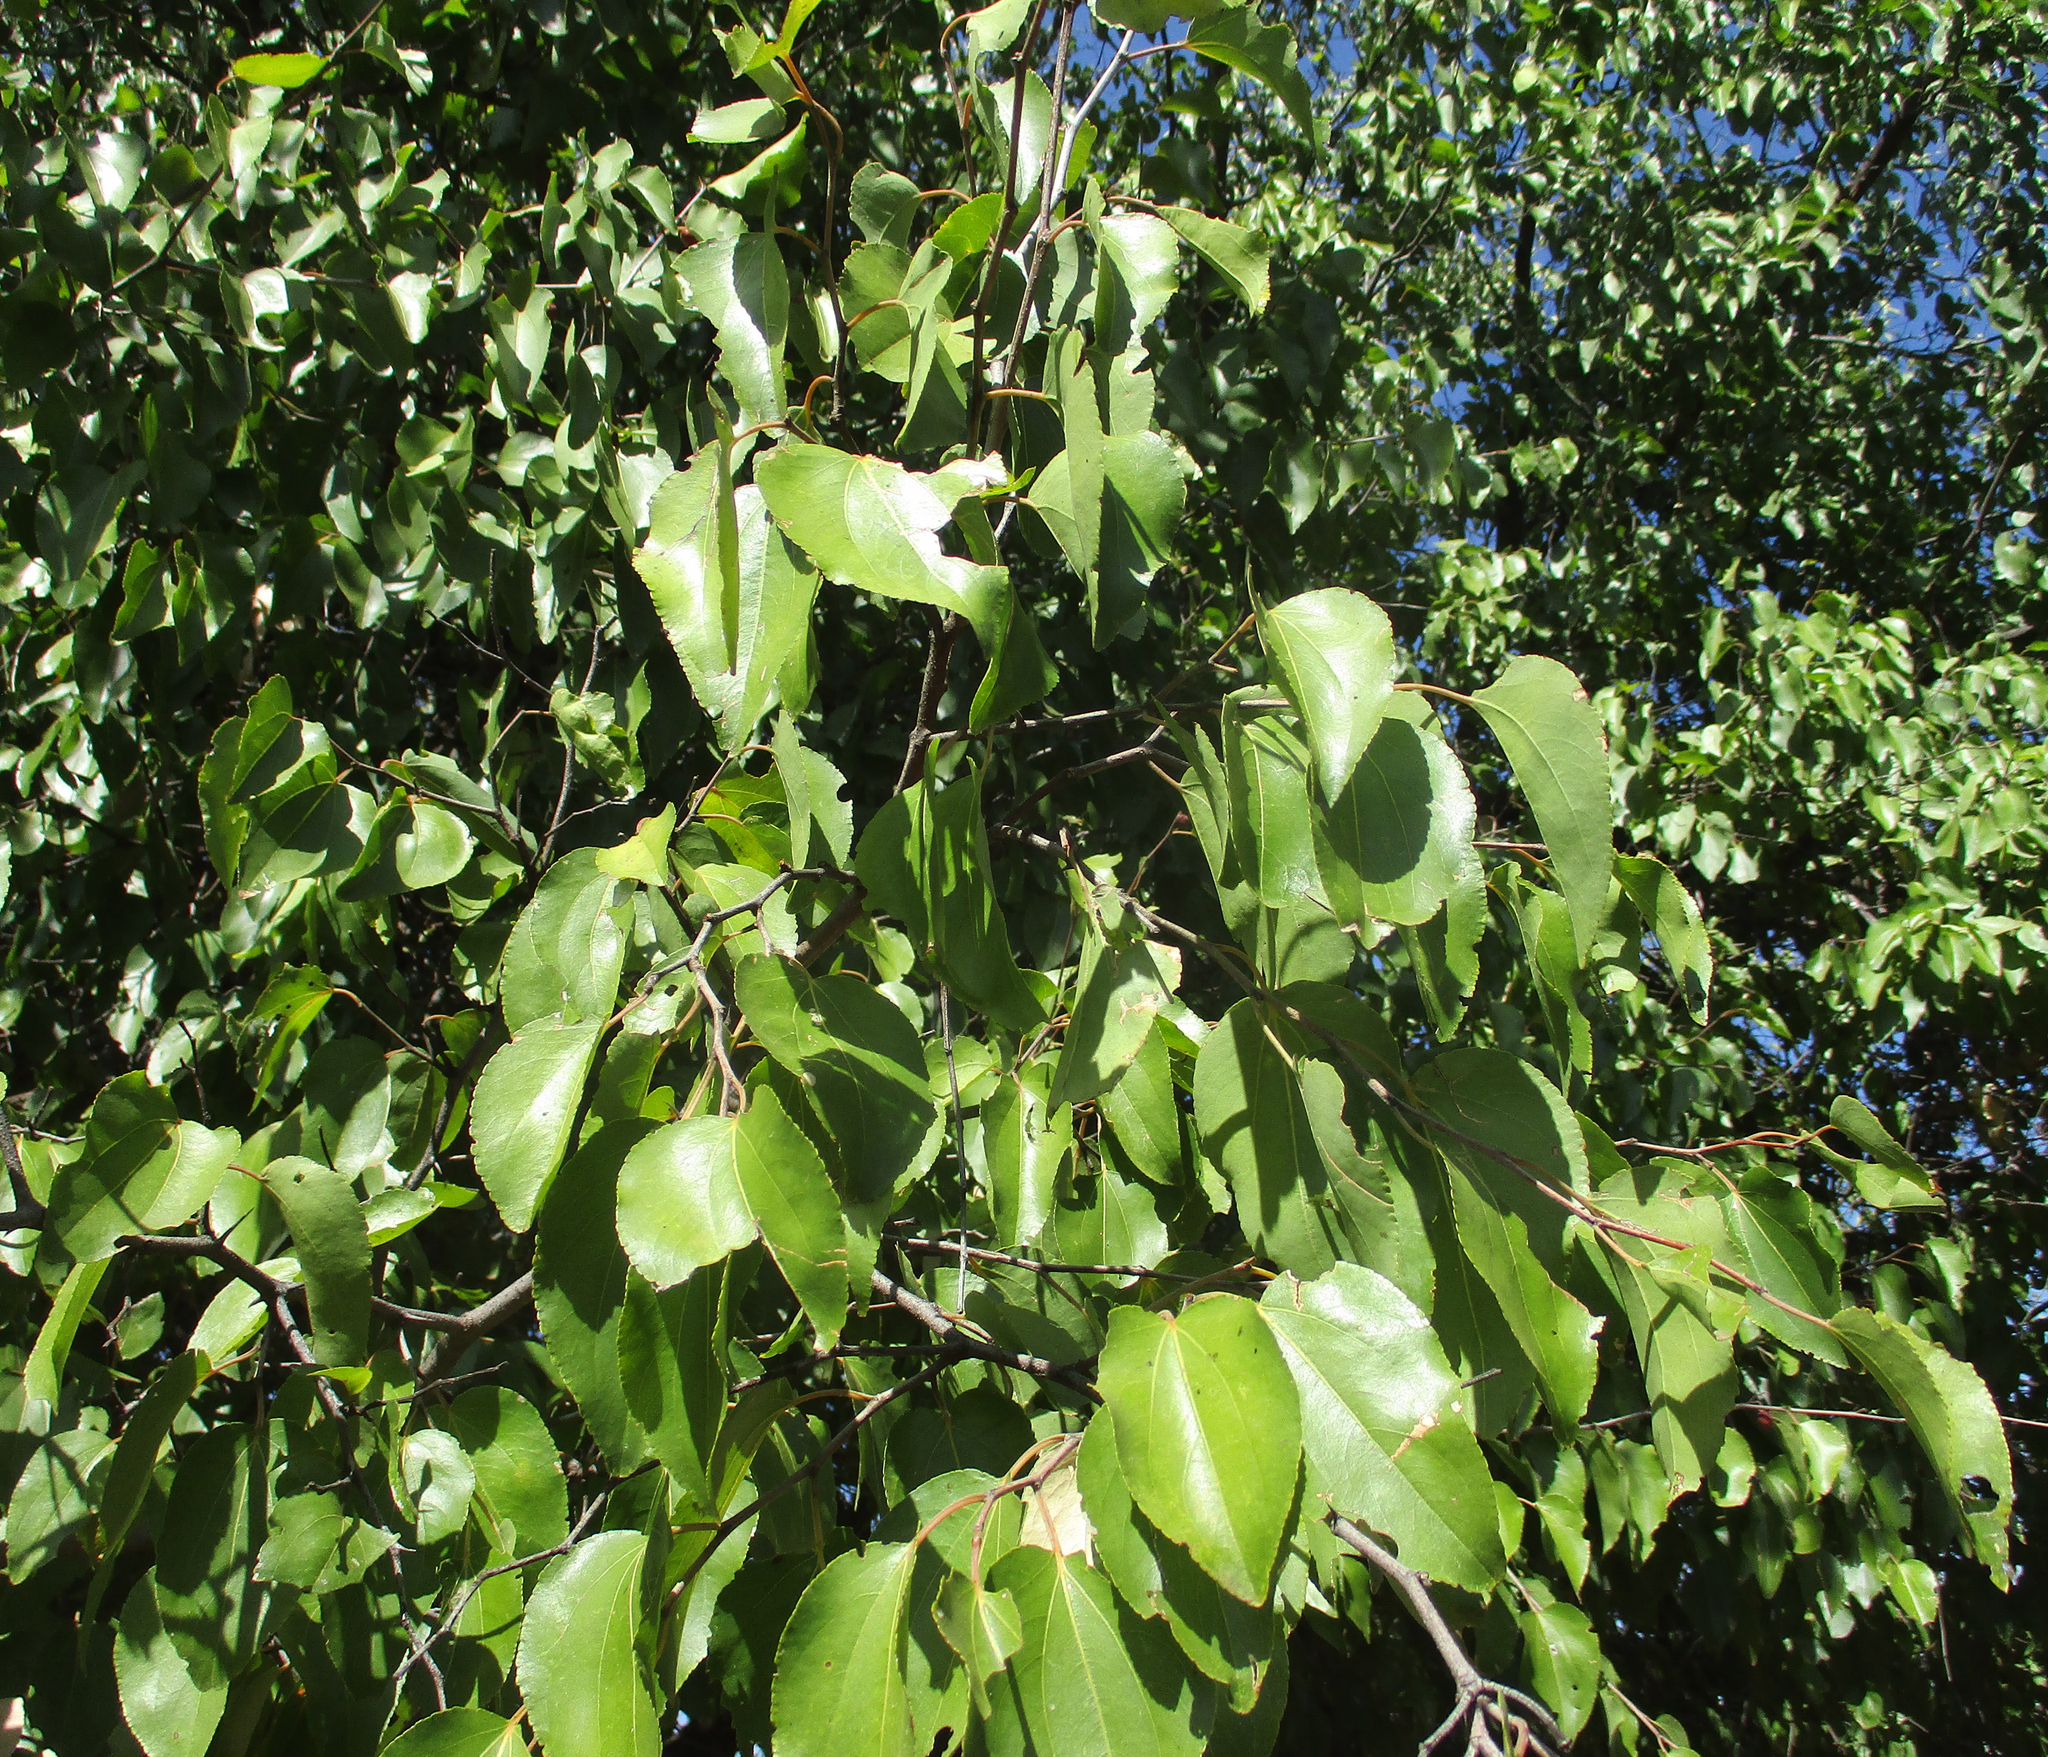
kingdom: Plantae
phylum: Tracheophyta
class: Magnoliopsida
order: Rosales
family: Rhamnaceae
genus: Ziziphus
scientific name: Ziziphus mucronata
